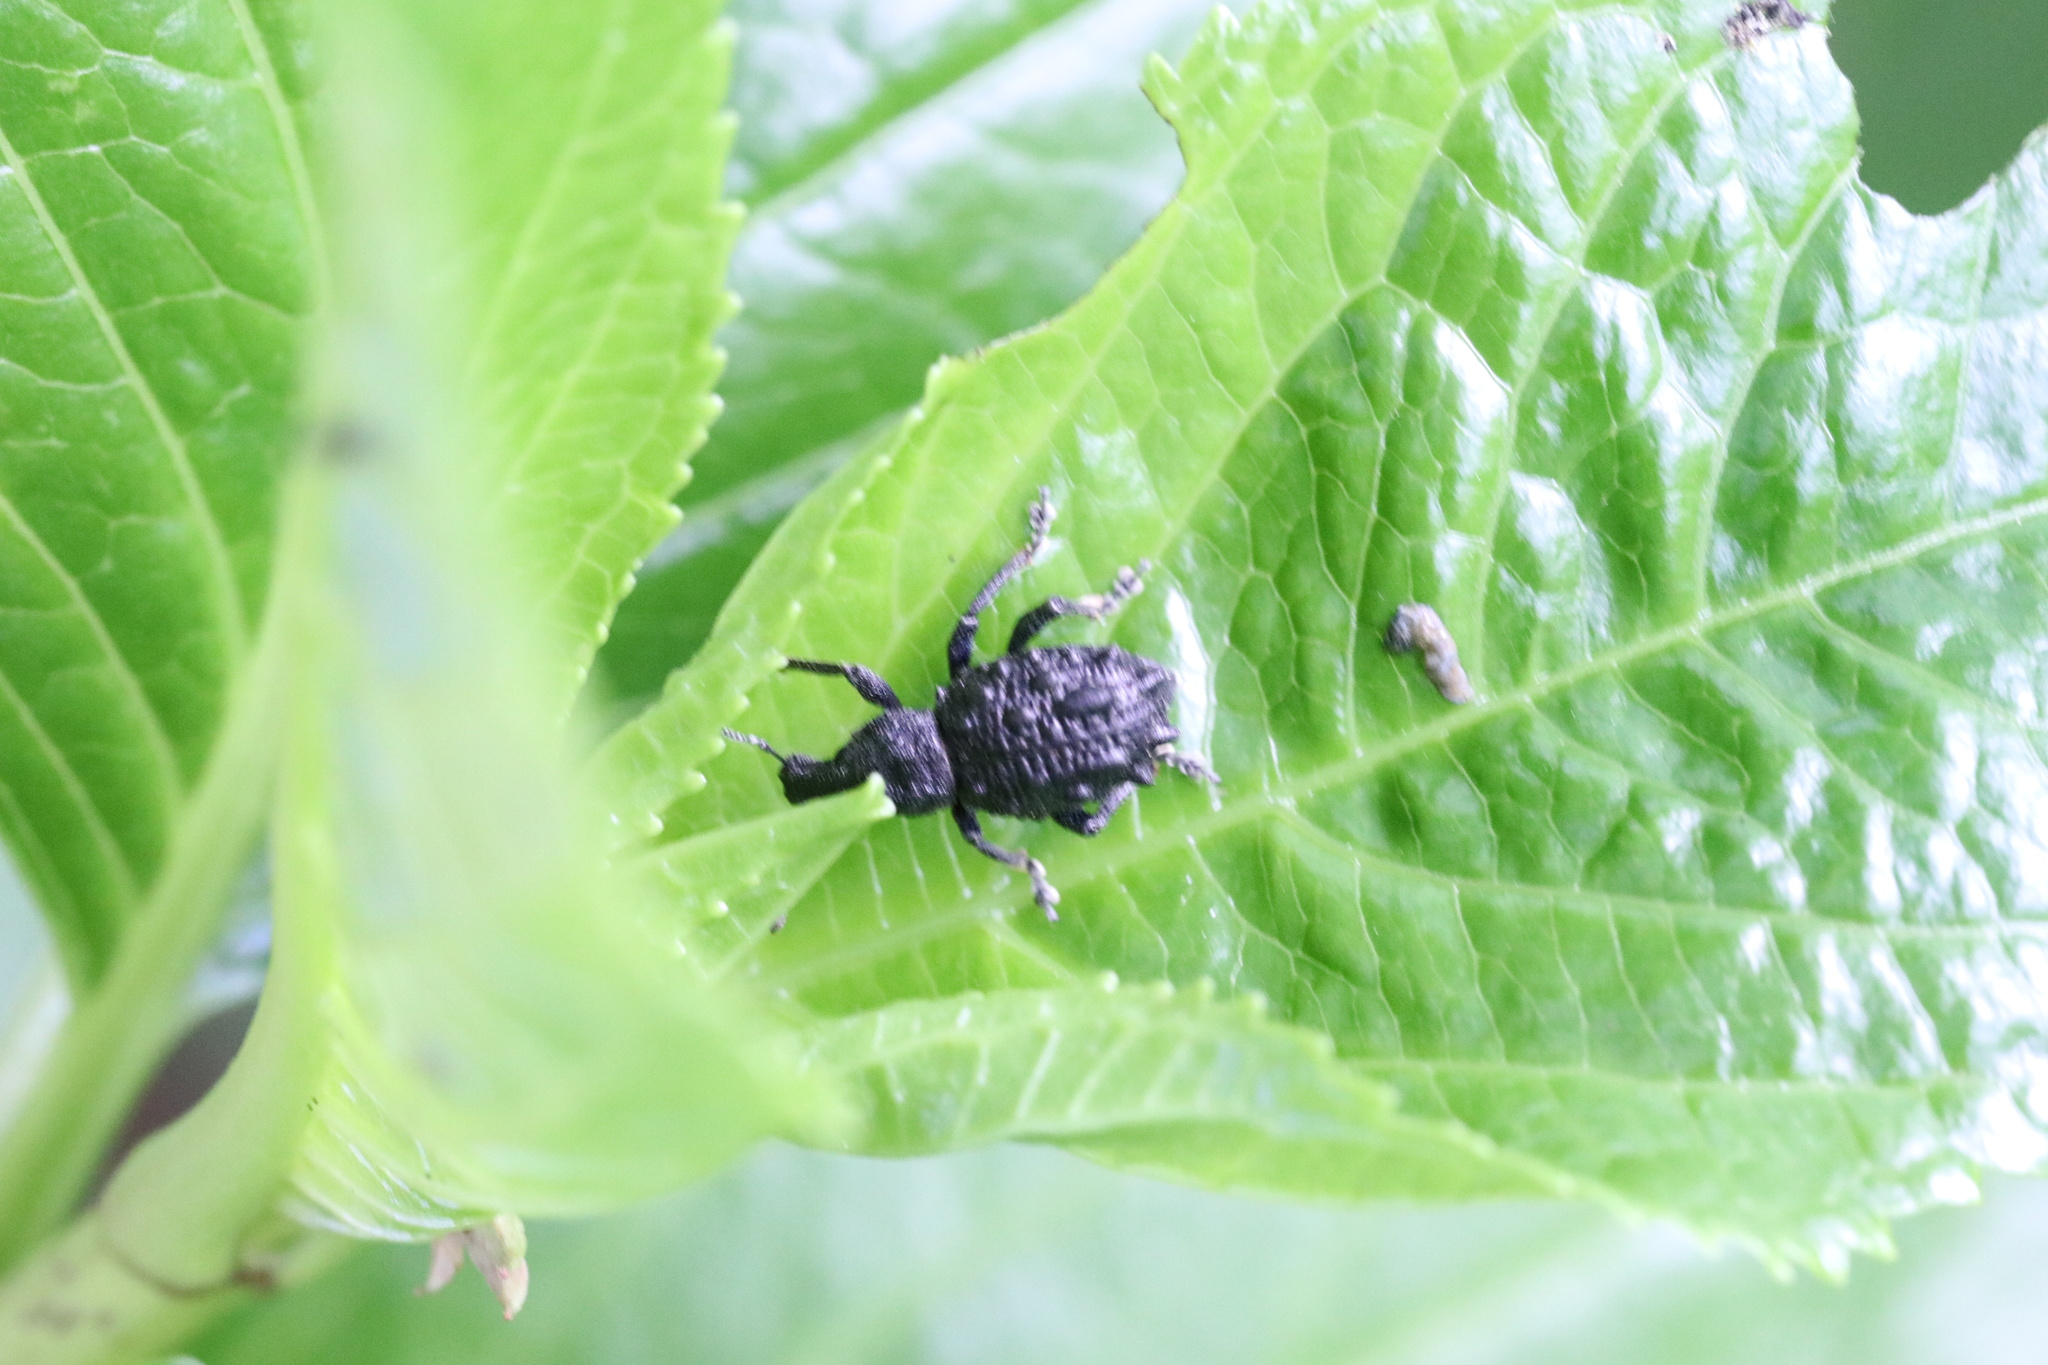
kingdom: Animalia
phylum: Arthropoda
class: Insecta
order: Coleoptera
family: Curculionidae
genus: Megalometis
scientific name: Megalometis spiniferus
